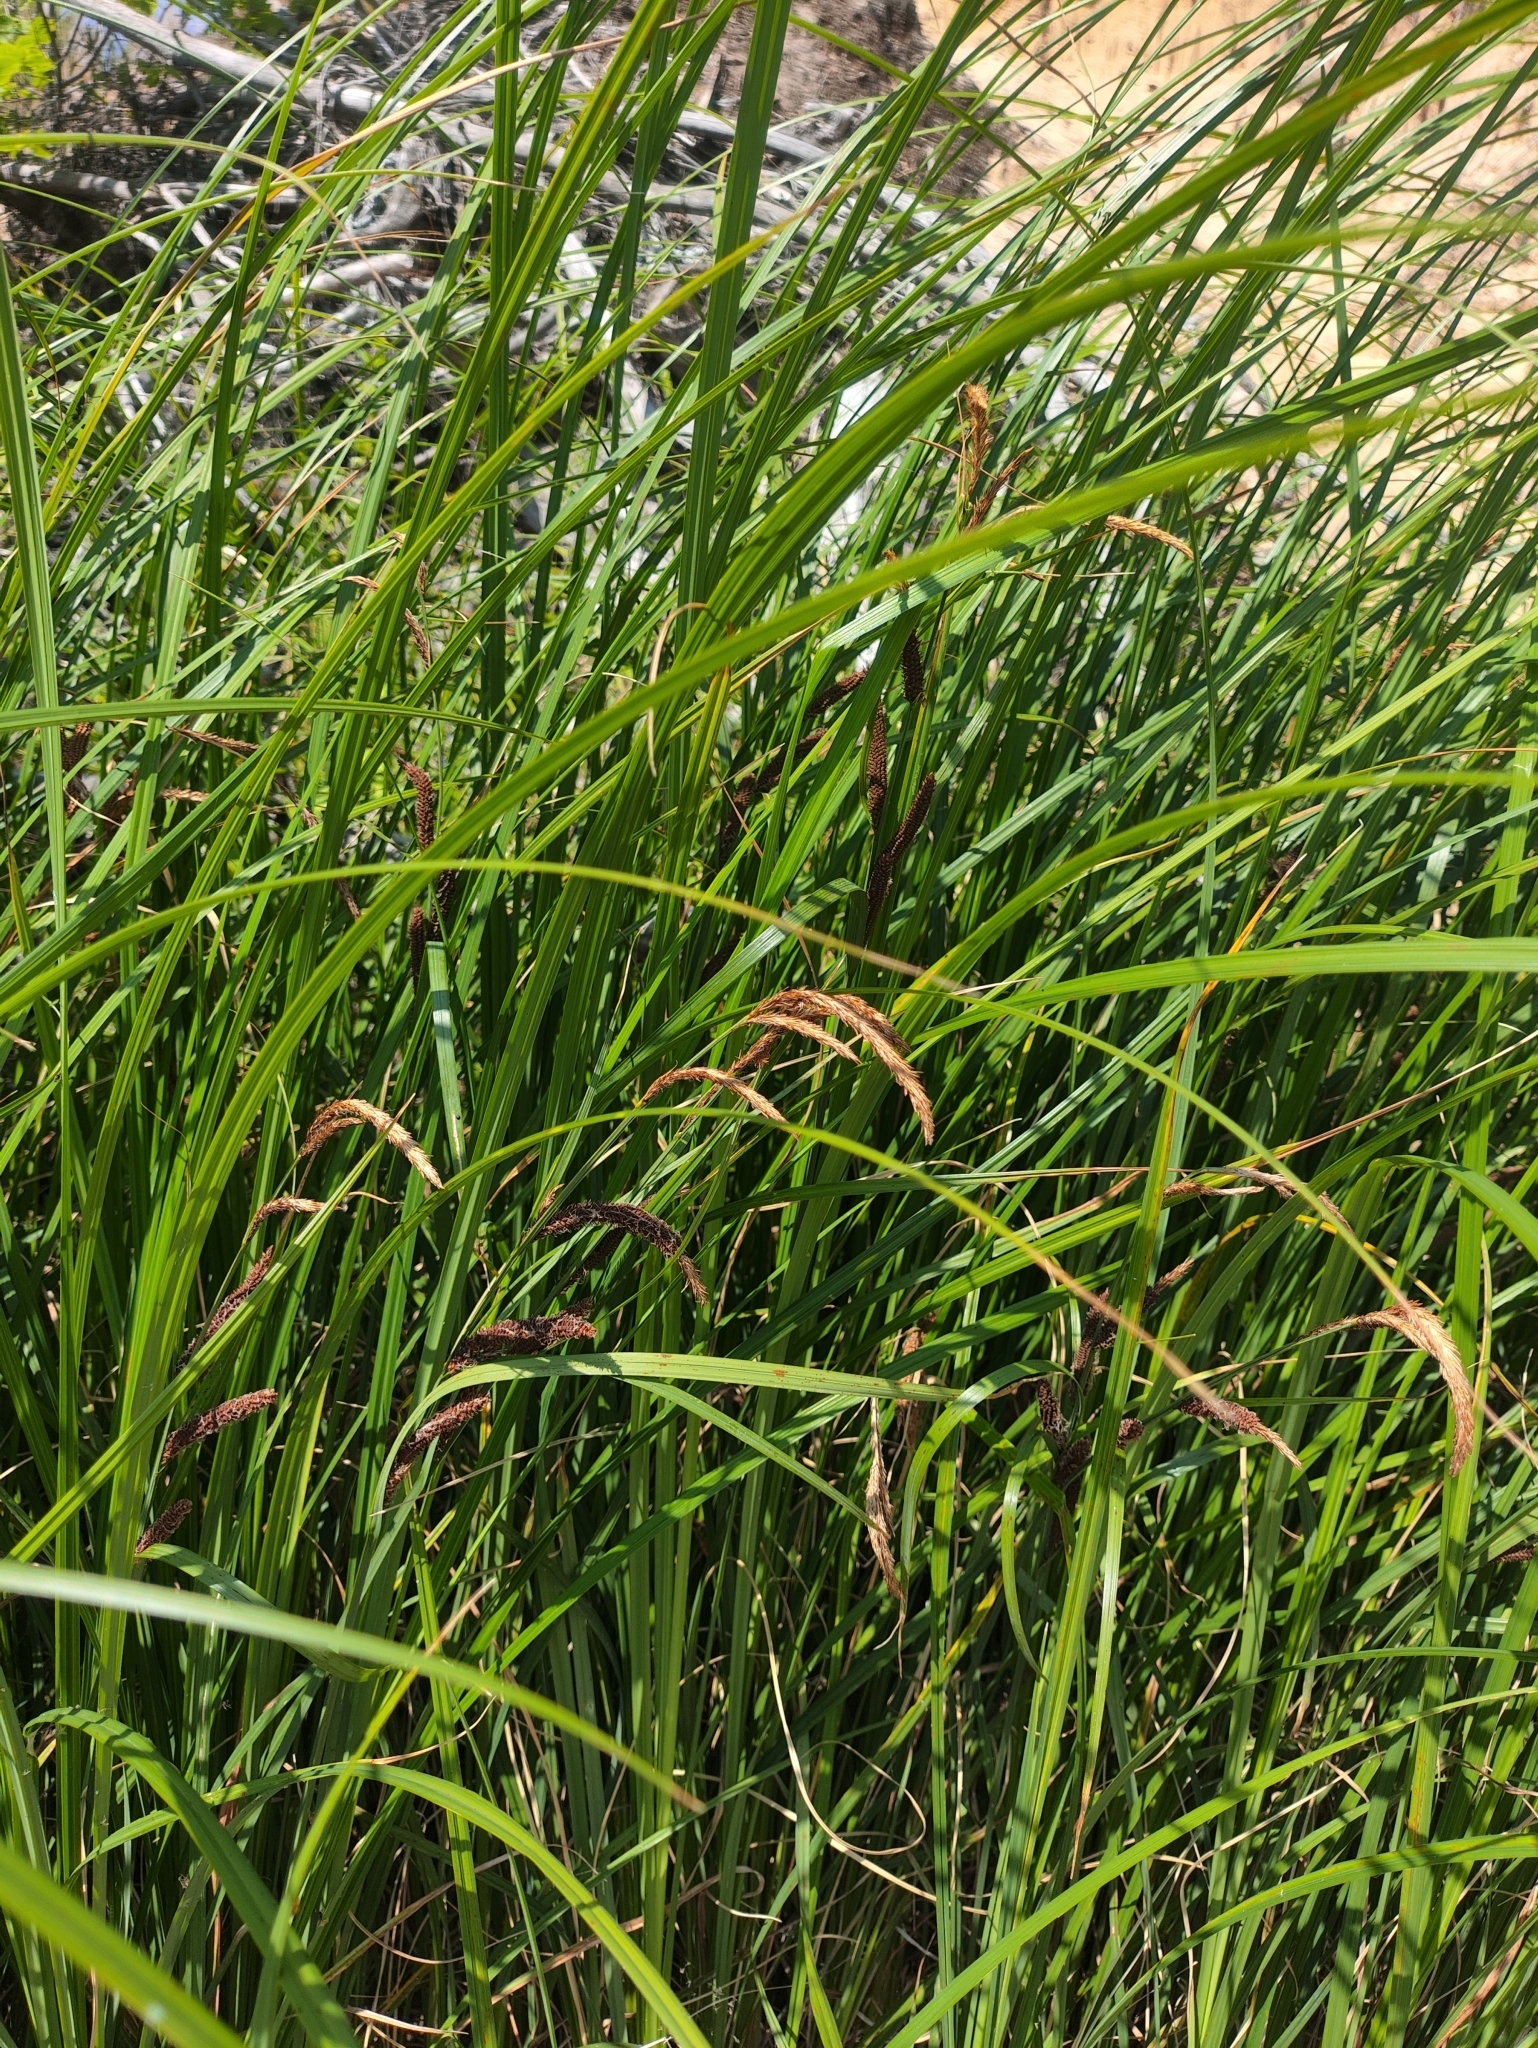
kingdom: Plantae
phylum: Tracheophyta
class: Liliopsida
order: Poales
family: Cyperaceae
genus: Carex
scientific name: Carex acuta
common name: Slender tufted-sedge
